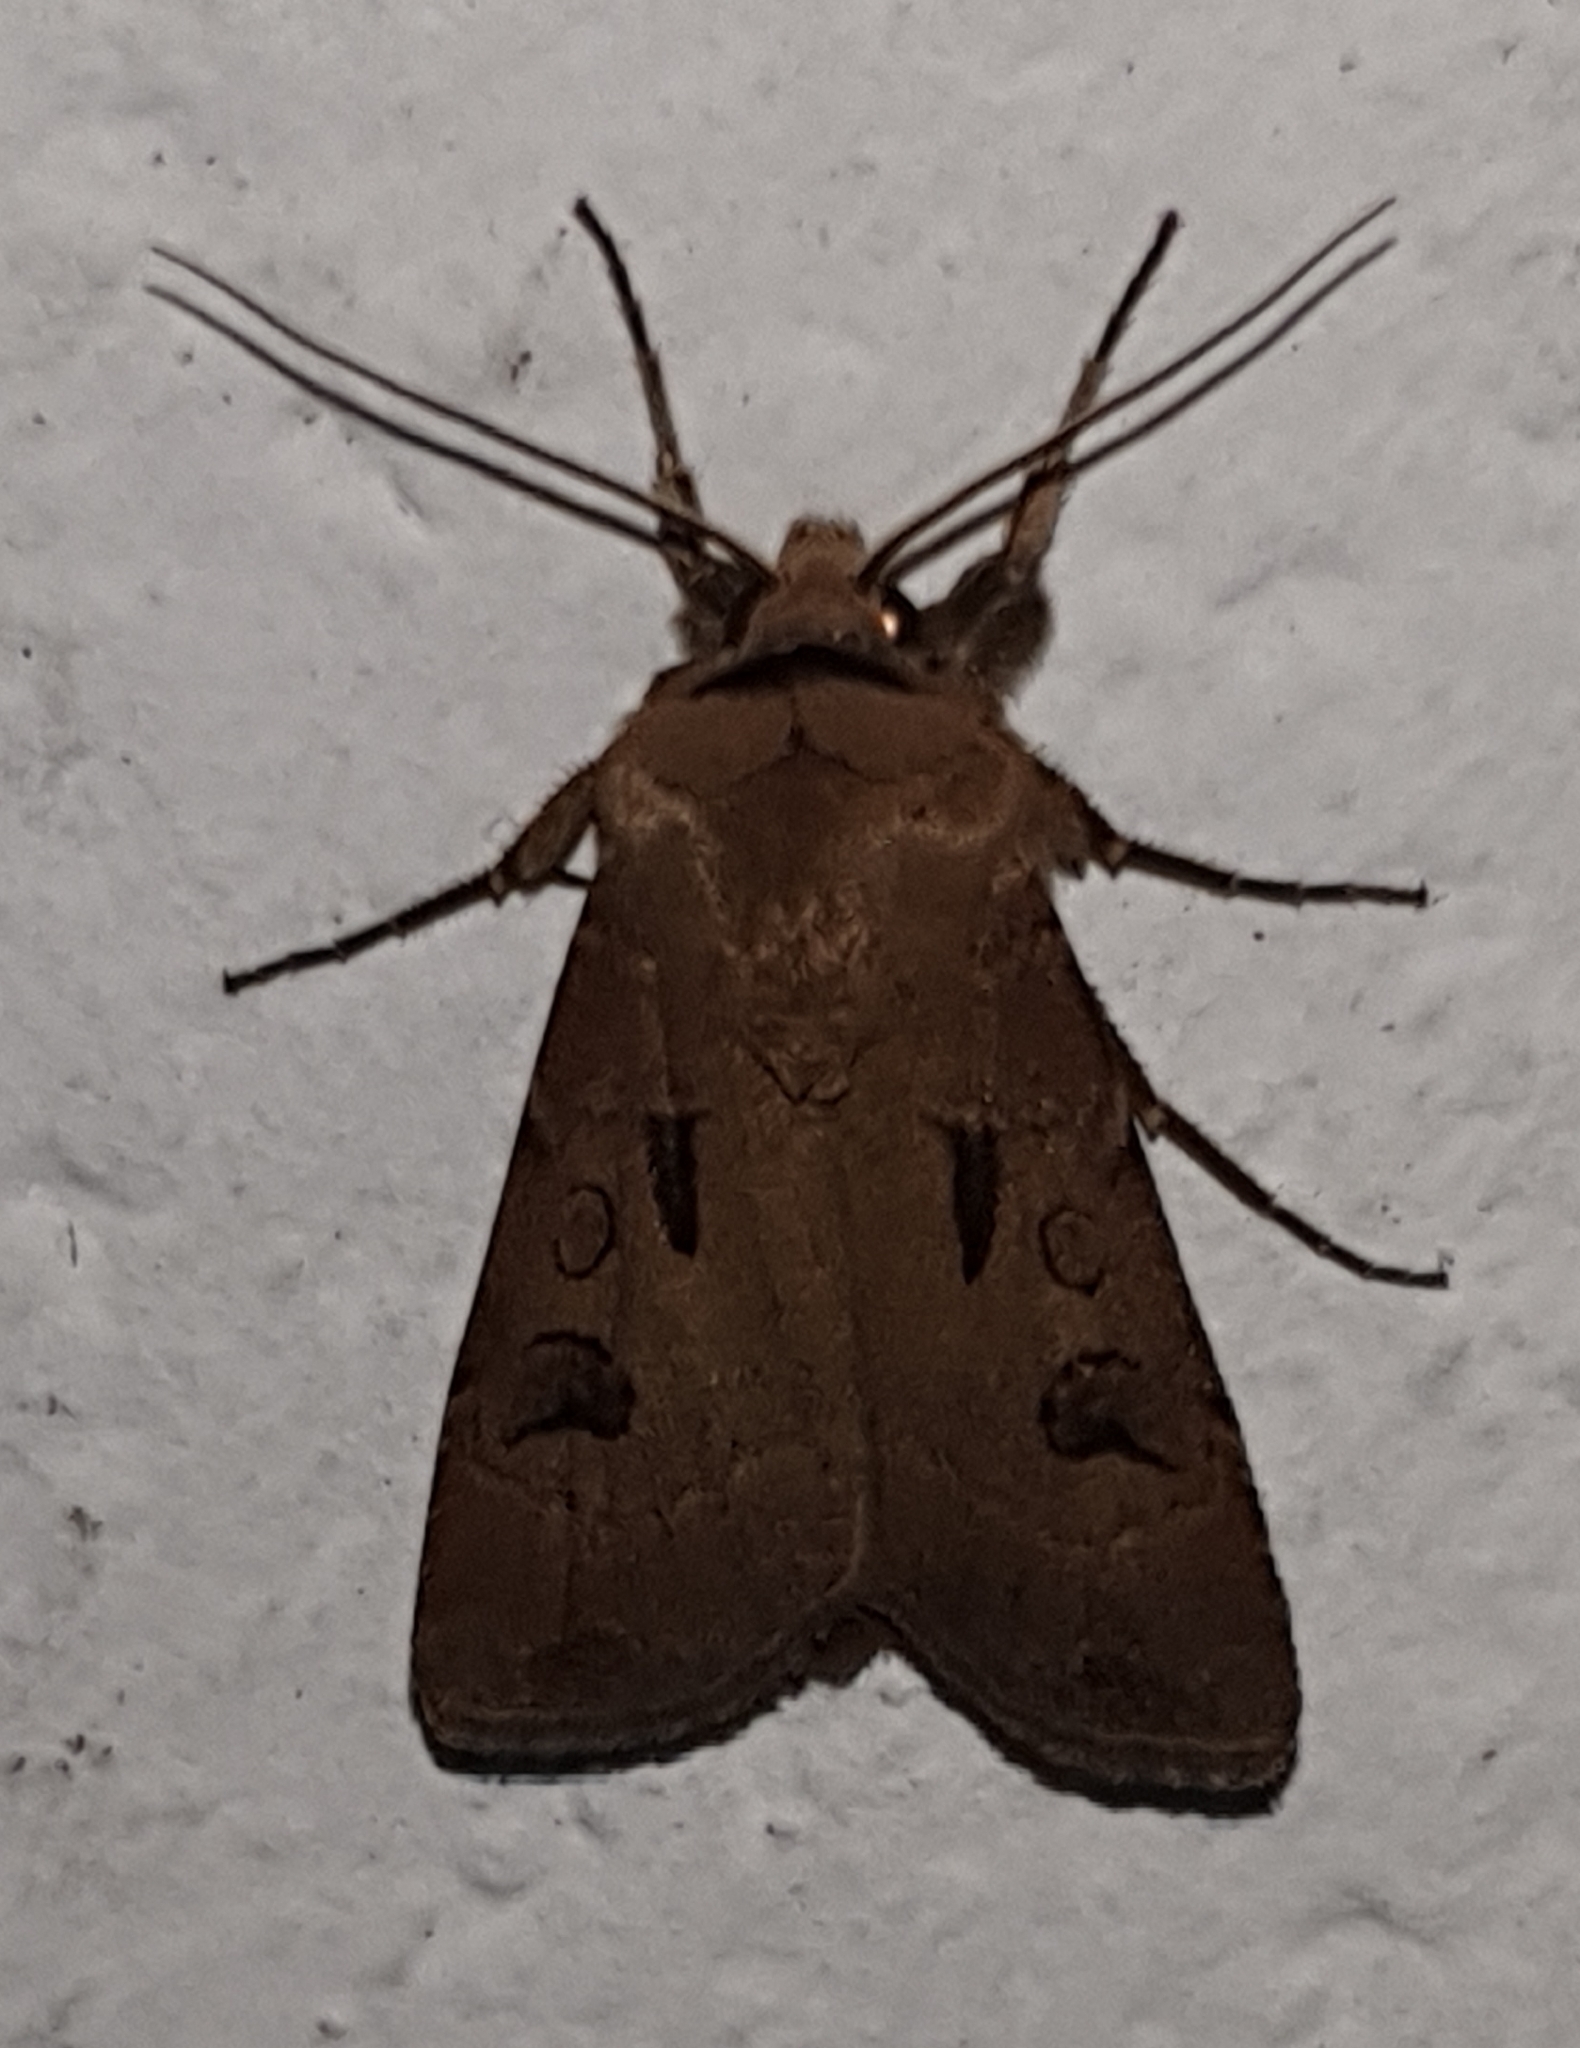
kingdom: Animalia
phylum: Arthropoda
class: Insecta
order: Lepidoptera
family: Noctuidae
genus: Agrotis
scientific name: Agrotis exclamationis
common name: Heart and dart
